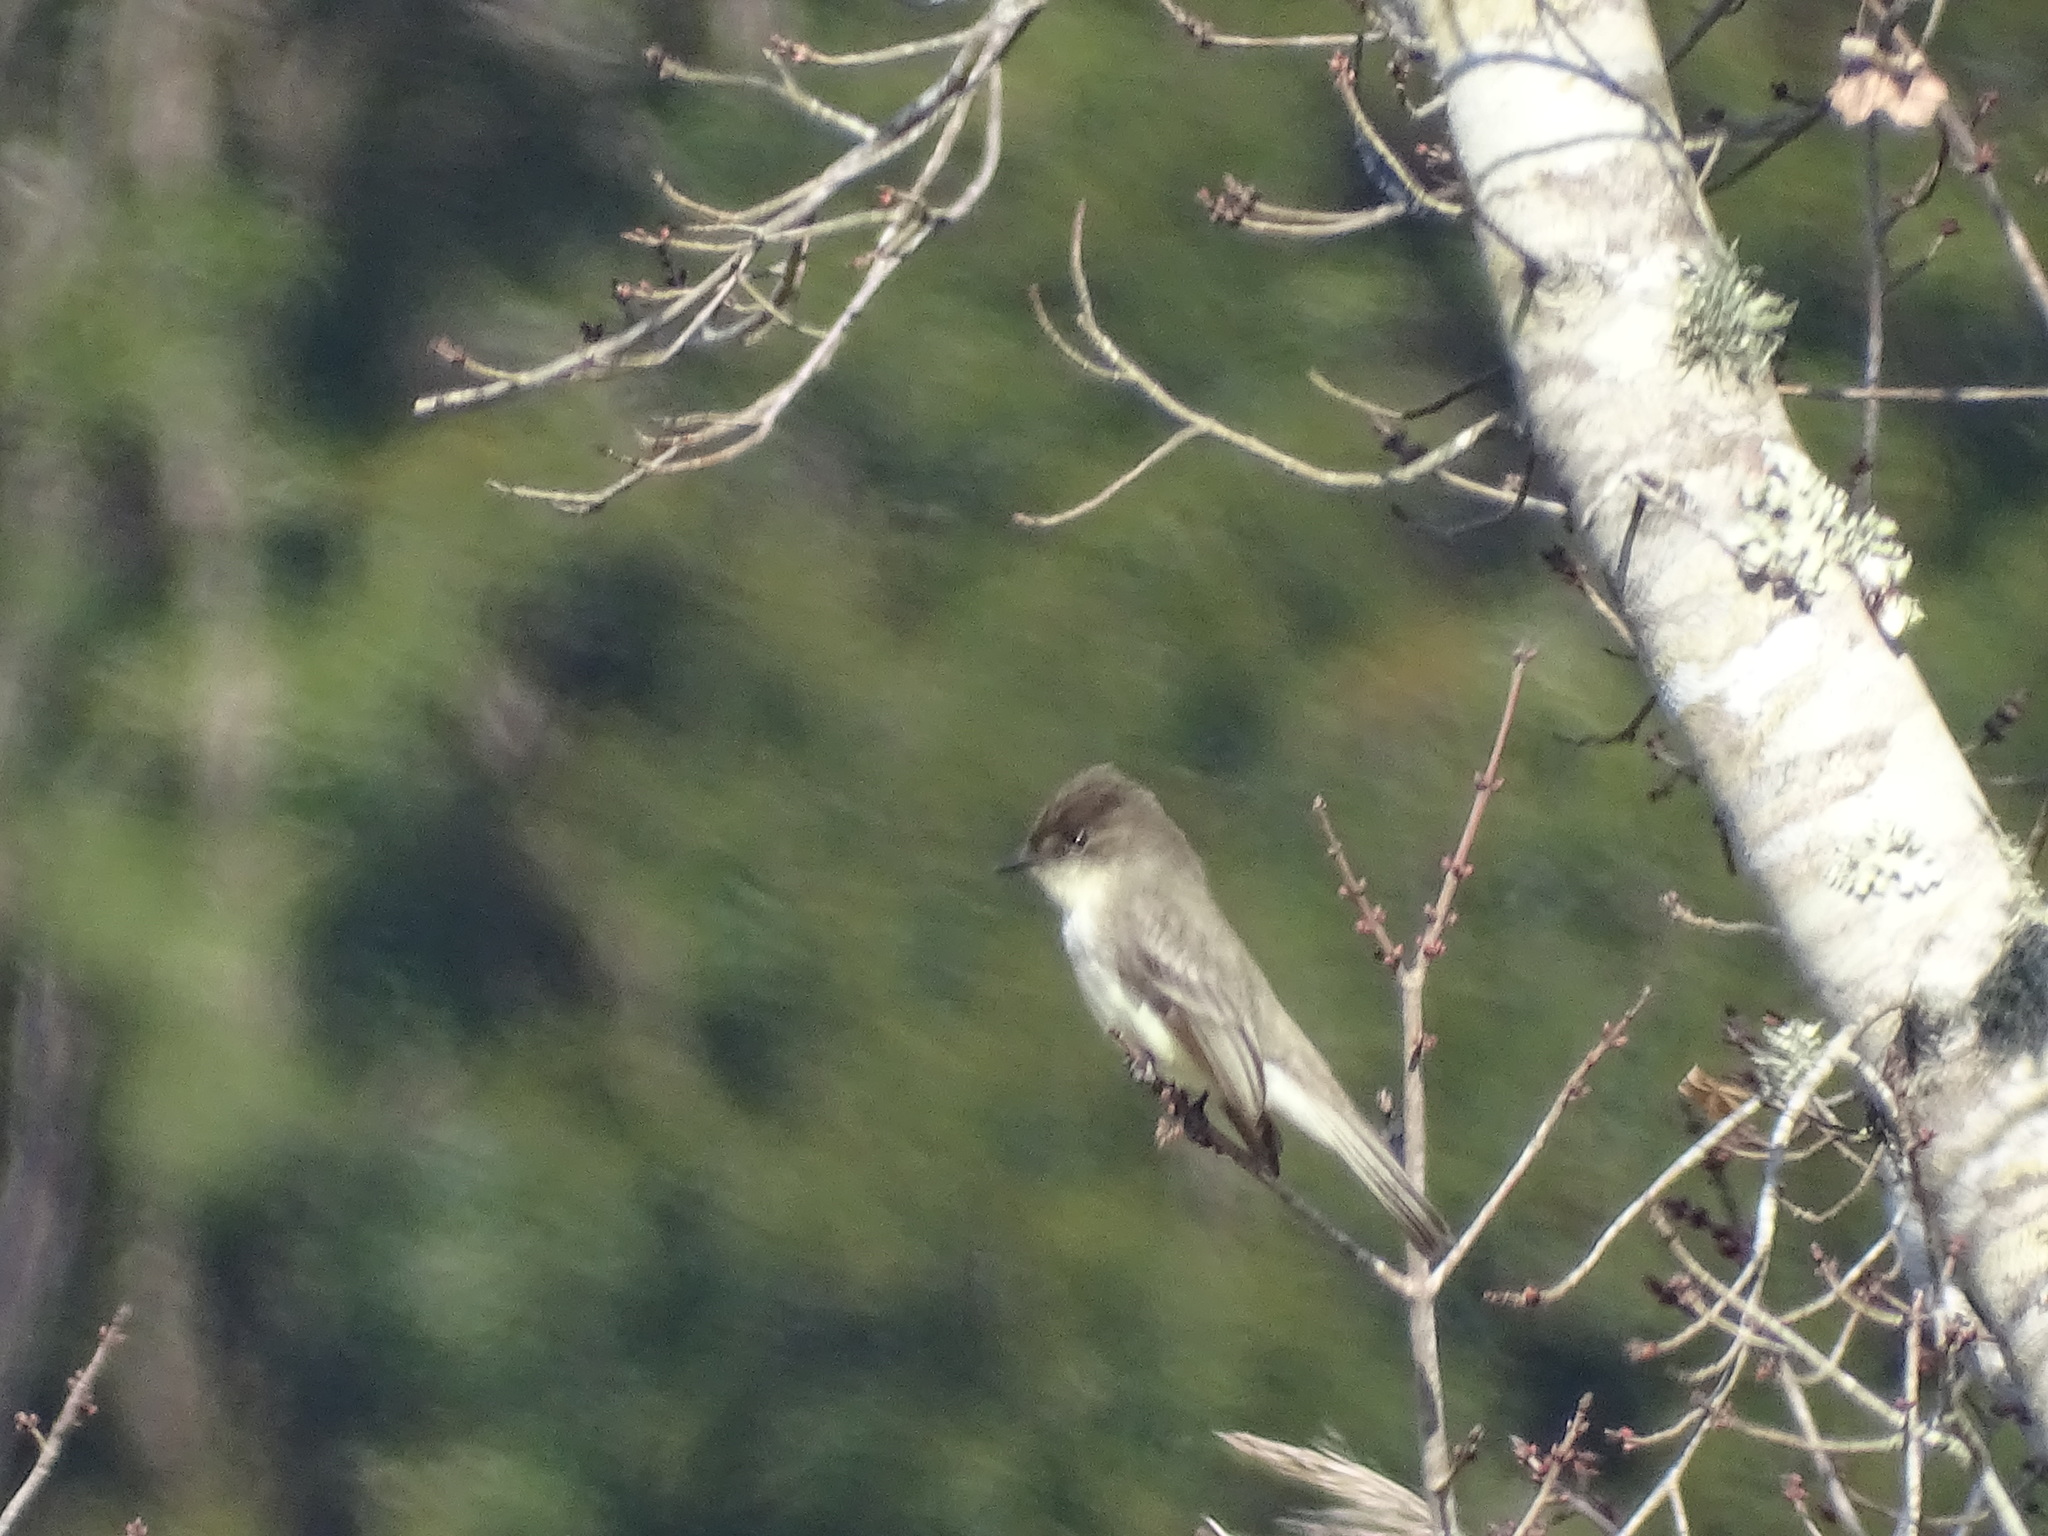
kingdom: Animalia
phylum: Chordata
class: Aves
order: Passeriformes
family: Tyrannidae
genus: Sayornis
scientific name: Sayornis phoebe
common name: Eastern phoebe
